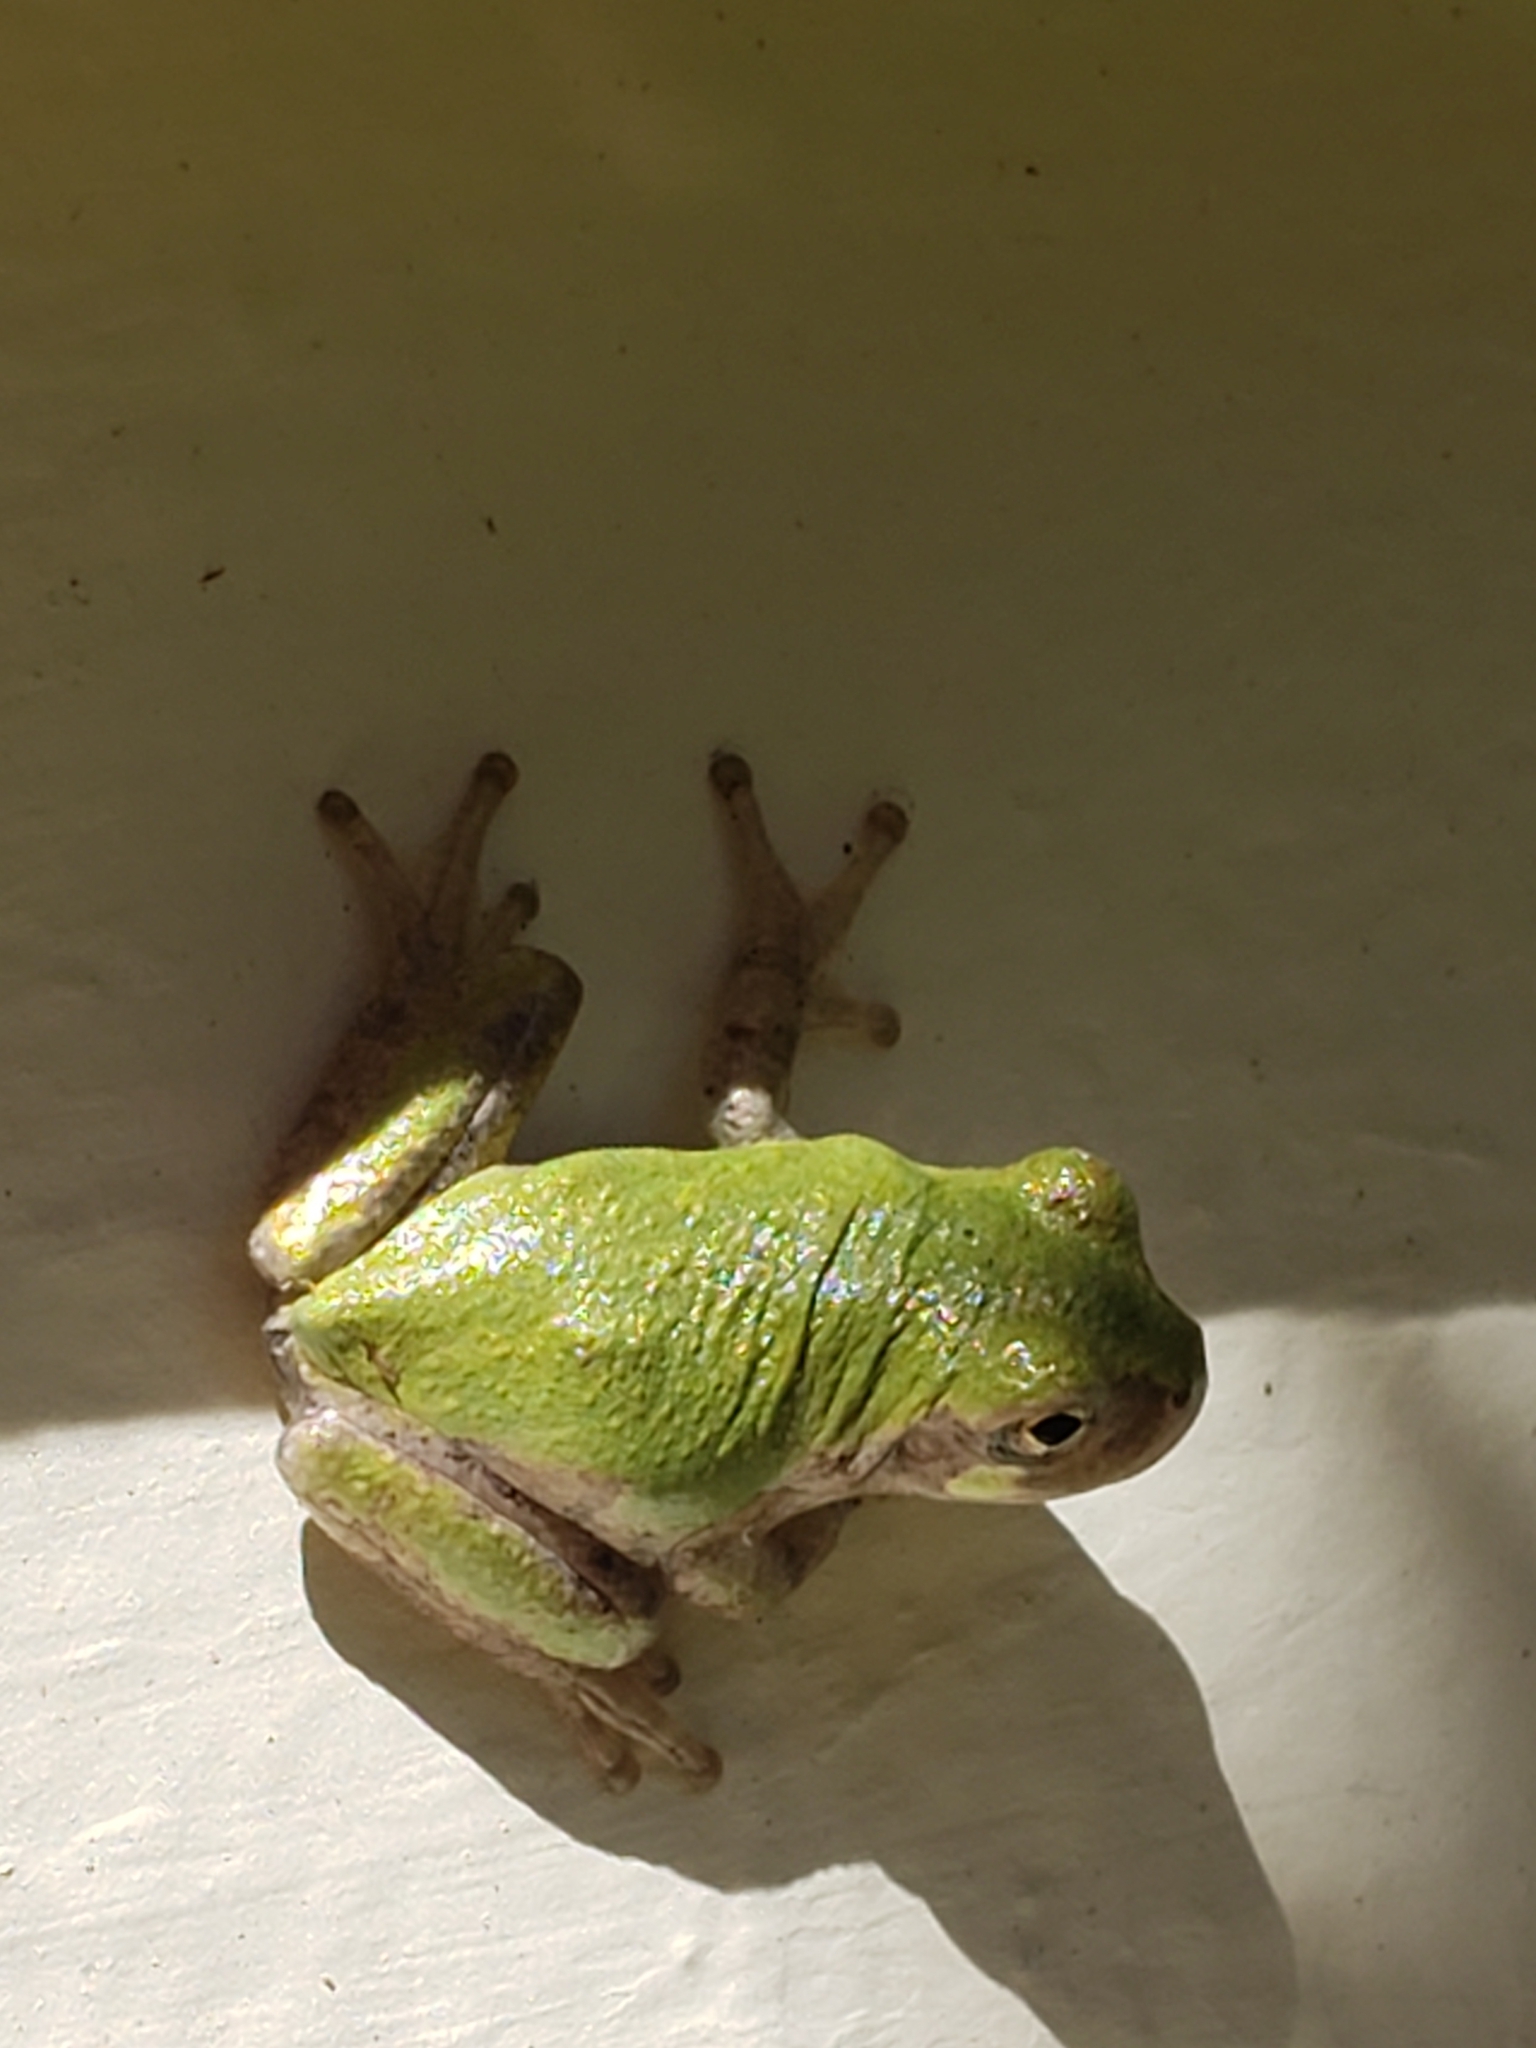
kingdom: Animalia
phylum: Chordata
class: Amphibia
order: Anura
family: Hylidae
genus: Hyla
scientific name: Hyla
